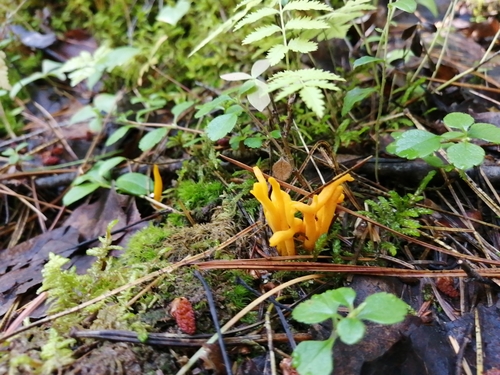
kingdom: Fungi
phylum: Basidiomycota
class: Dacrymycetes
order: Dacrymycetales
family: Dacrymycetaceae
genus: Calocera
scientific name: Calocera viscosa
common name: Yellow stagshorn
